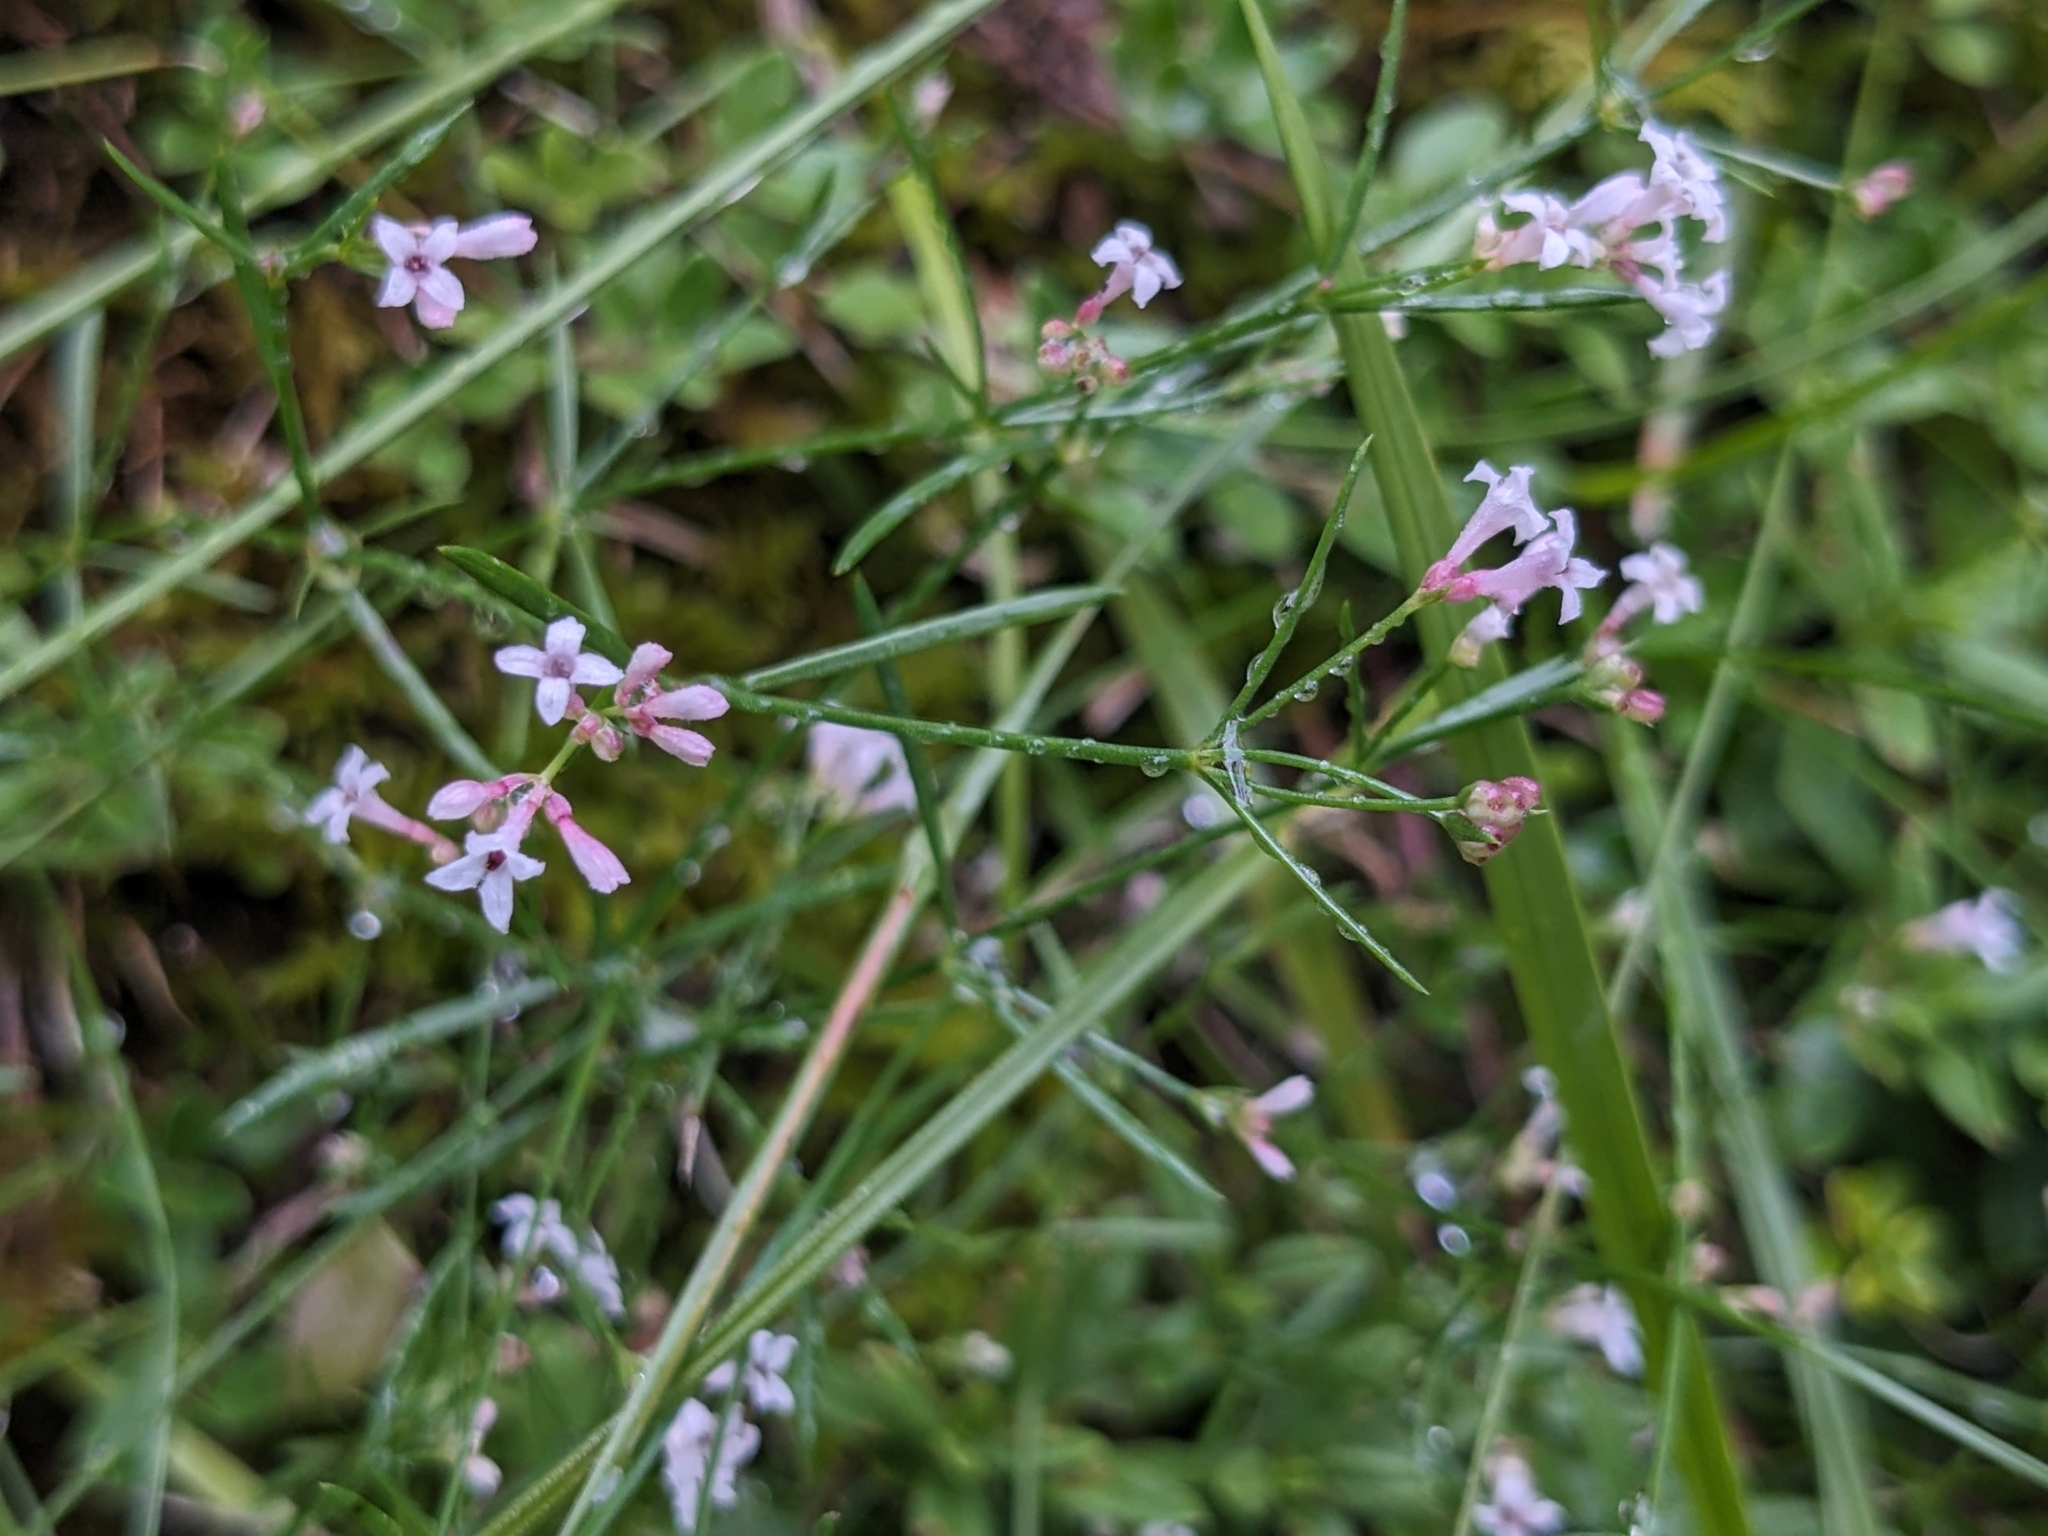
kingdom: Plantae
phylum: Tracheophyta
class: Magnoliopsida
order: Gentianales
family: Rubiaceae
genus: Cynanchica
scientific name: Cynanchica pyrenaica
